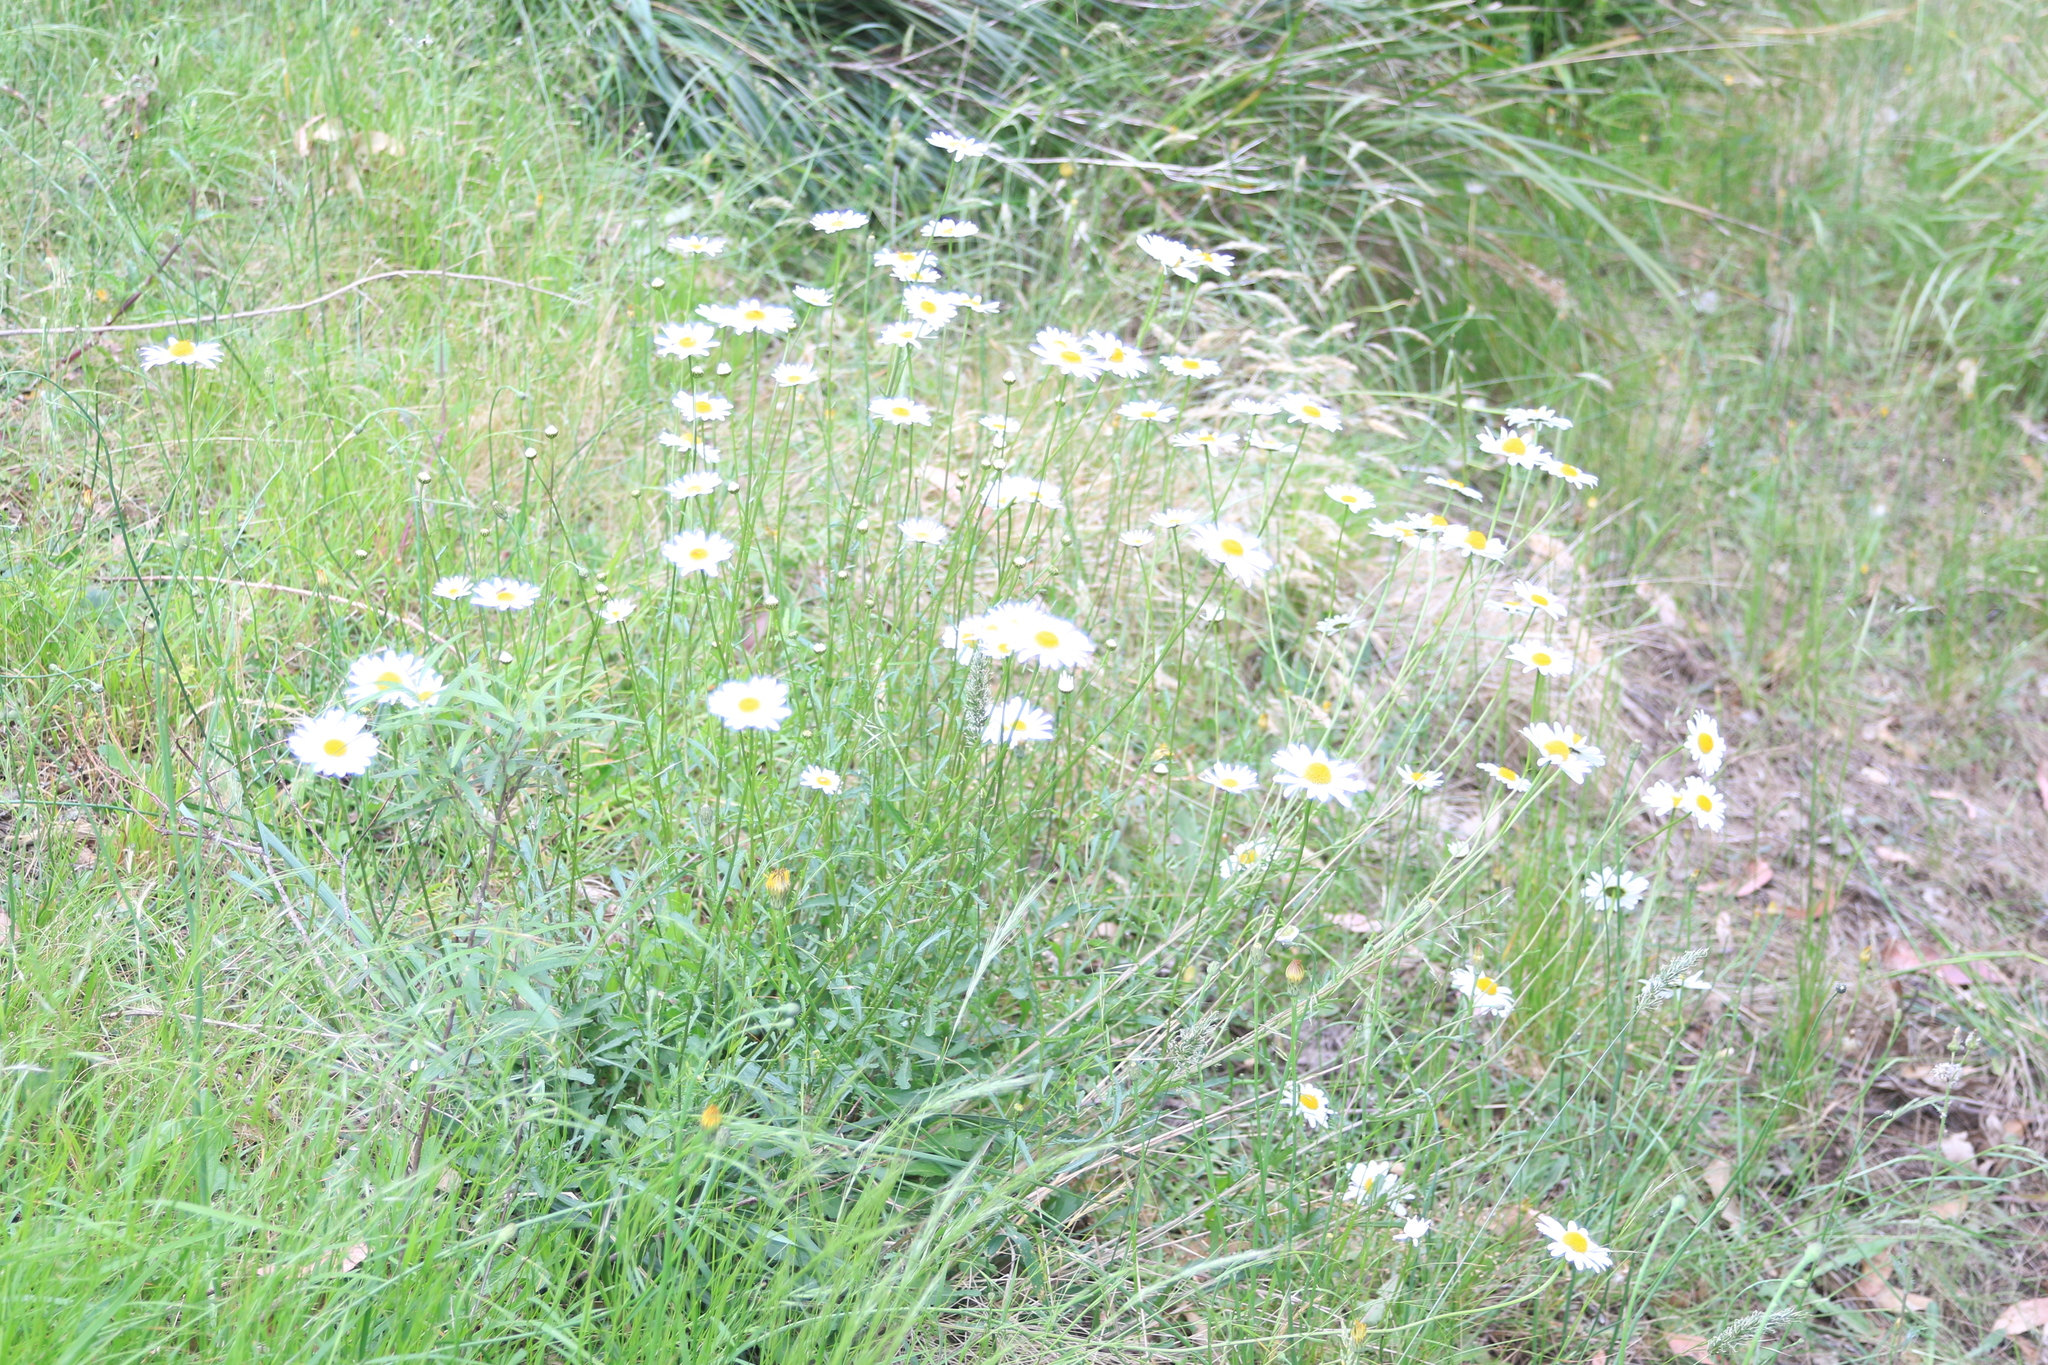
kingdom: Plantae
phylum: Tracheophyta
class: Magnoliopsida
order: Asterales
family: Asteraceae
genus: Leucanthemum
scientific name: Leucanthemum vulgare
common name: Oxeye daisy
